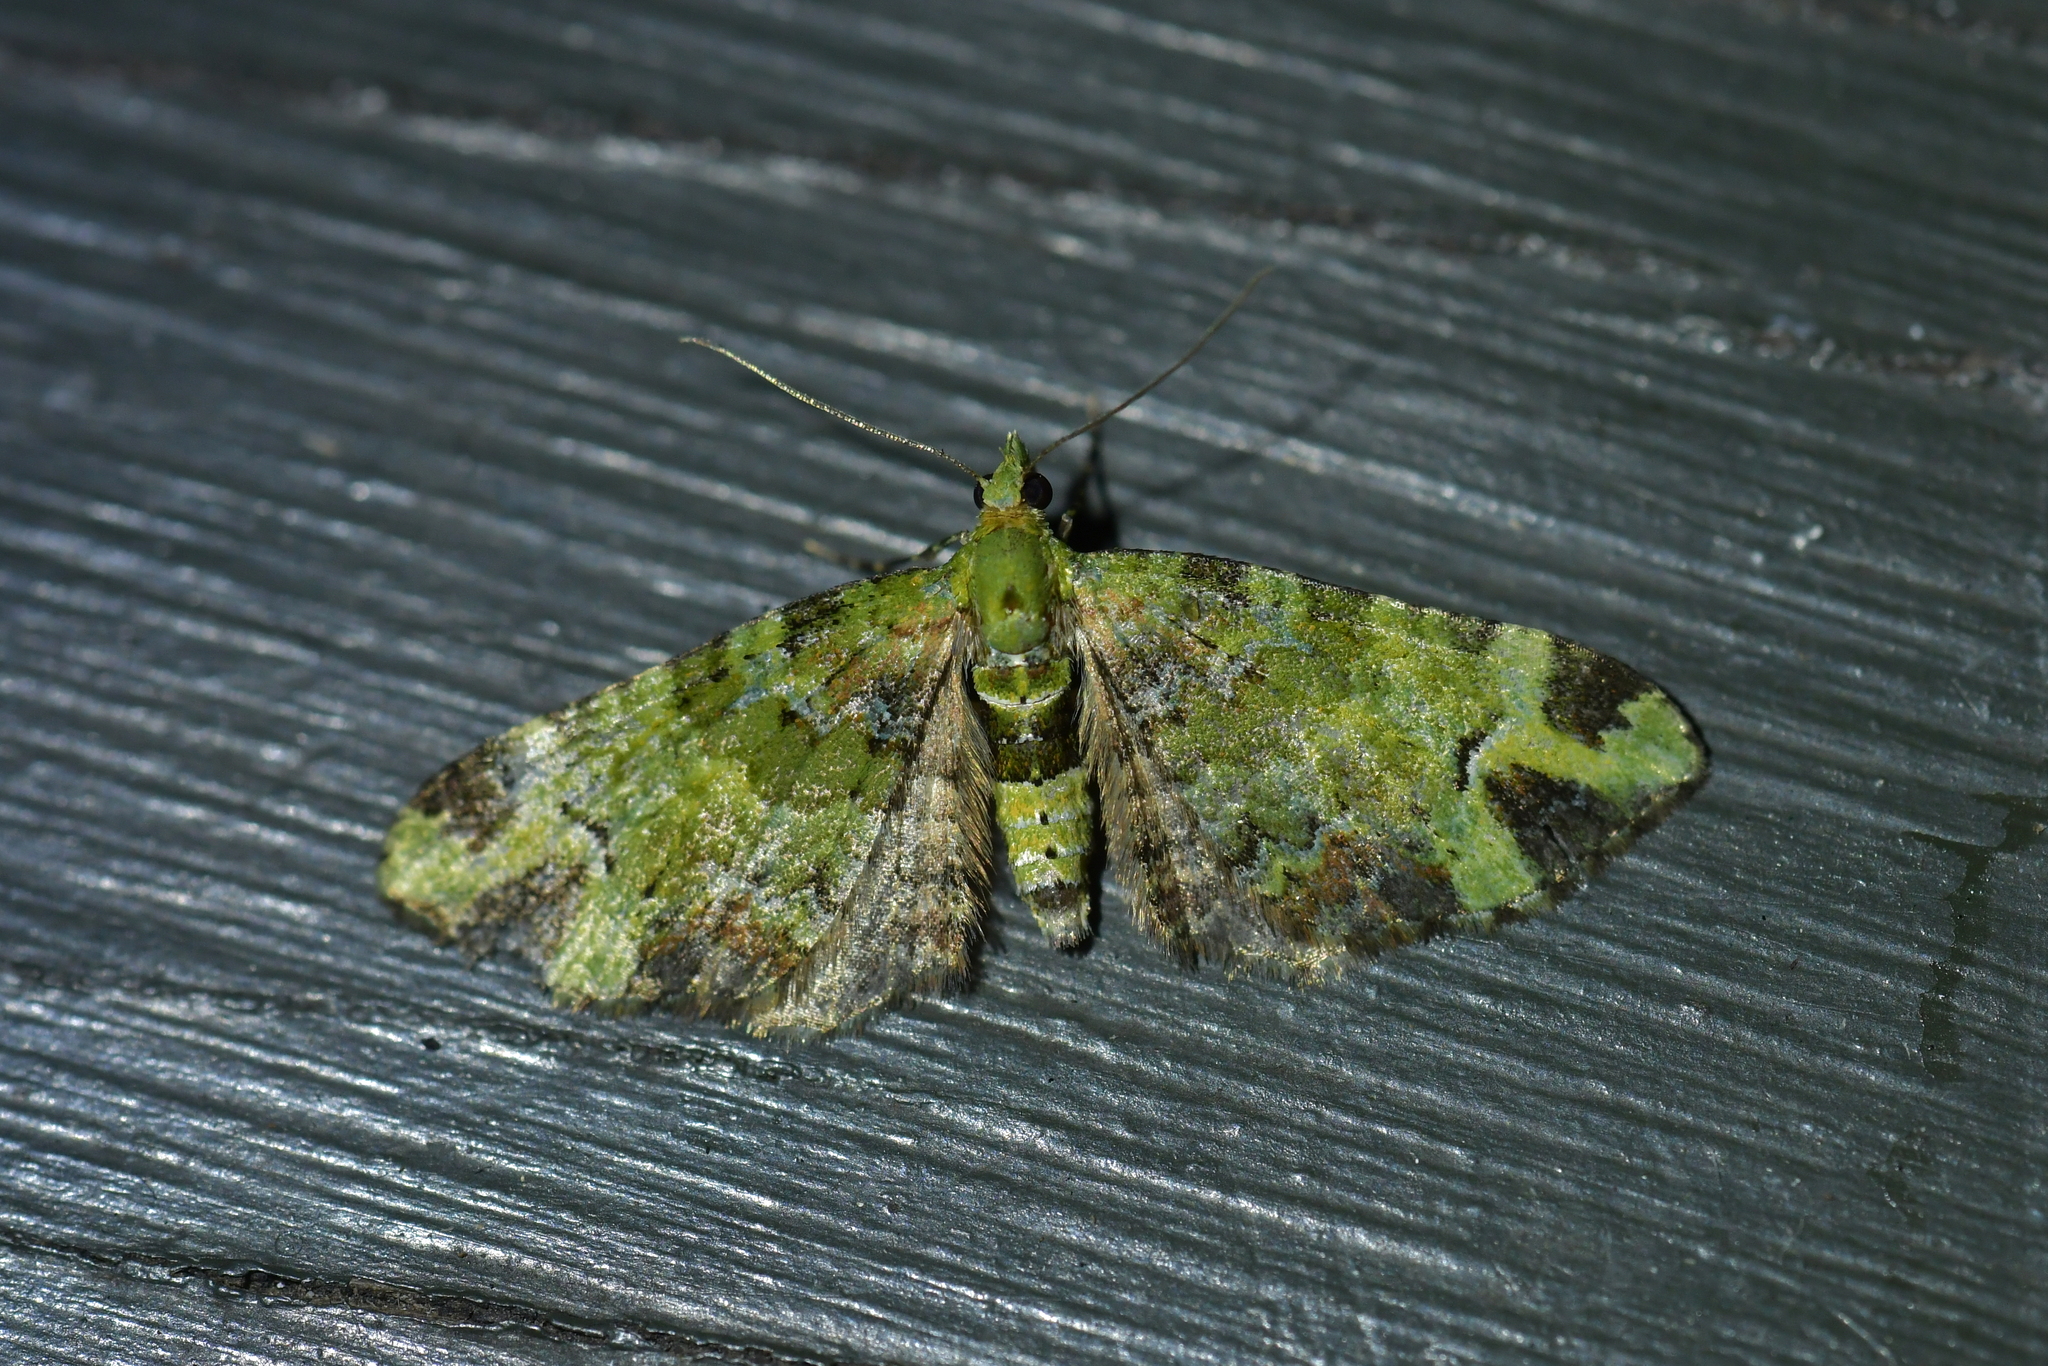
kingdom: Animalia
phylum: Arthropoda
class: Insecta
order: Lepidoptera
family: Geometridae
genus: Pasiphila
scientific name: Pasiphila malachita
